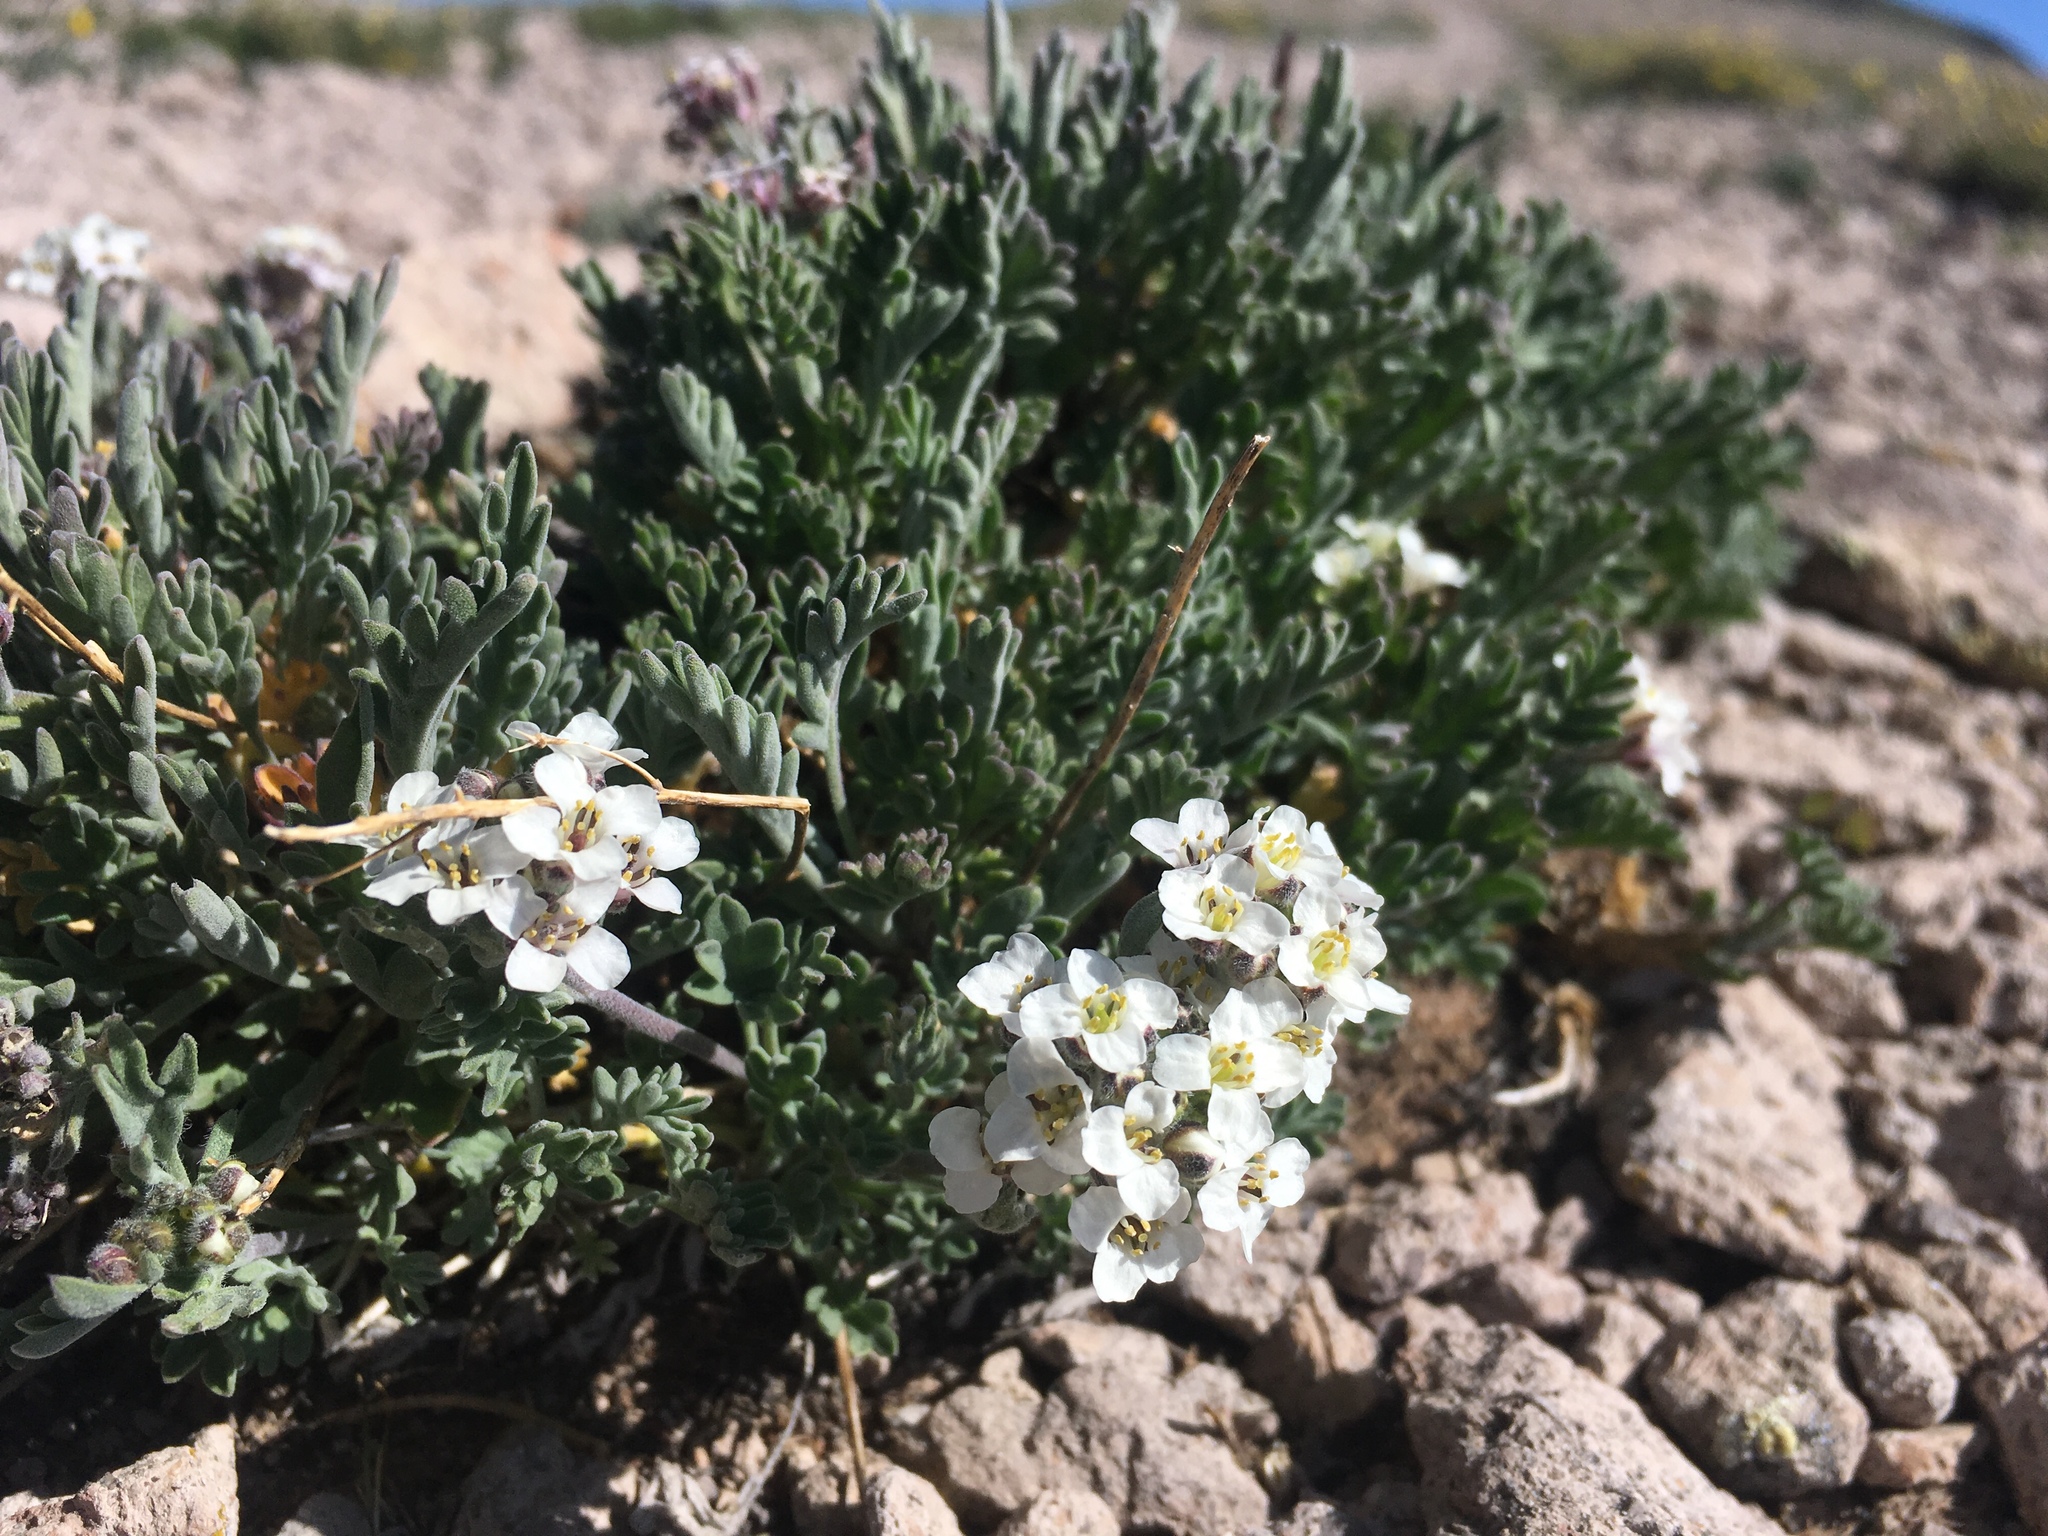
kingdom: Plantae
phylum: Tracheophyta
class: Magnoliopsida
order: Brassicales
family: Brassicaceae
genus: Smelowskia
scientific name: Smelowskia americana
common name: American false candytuft
